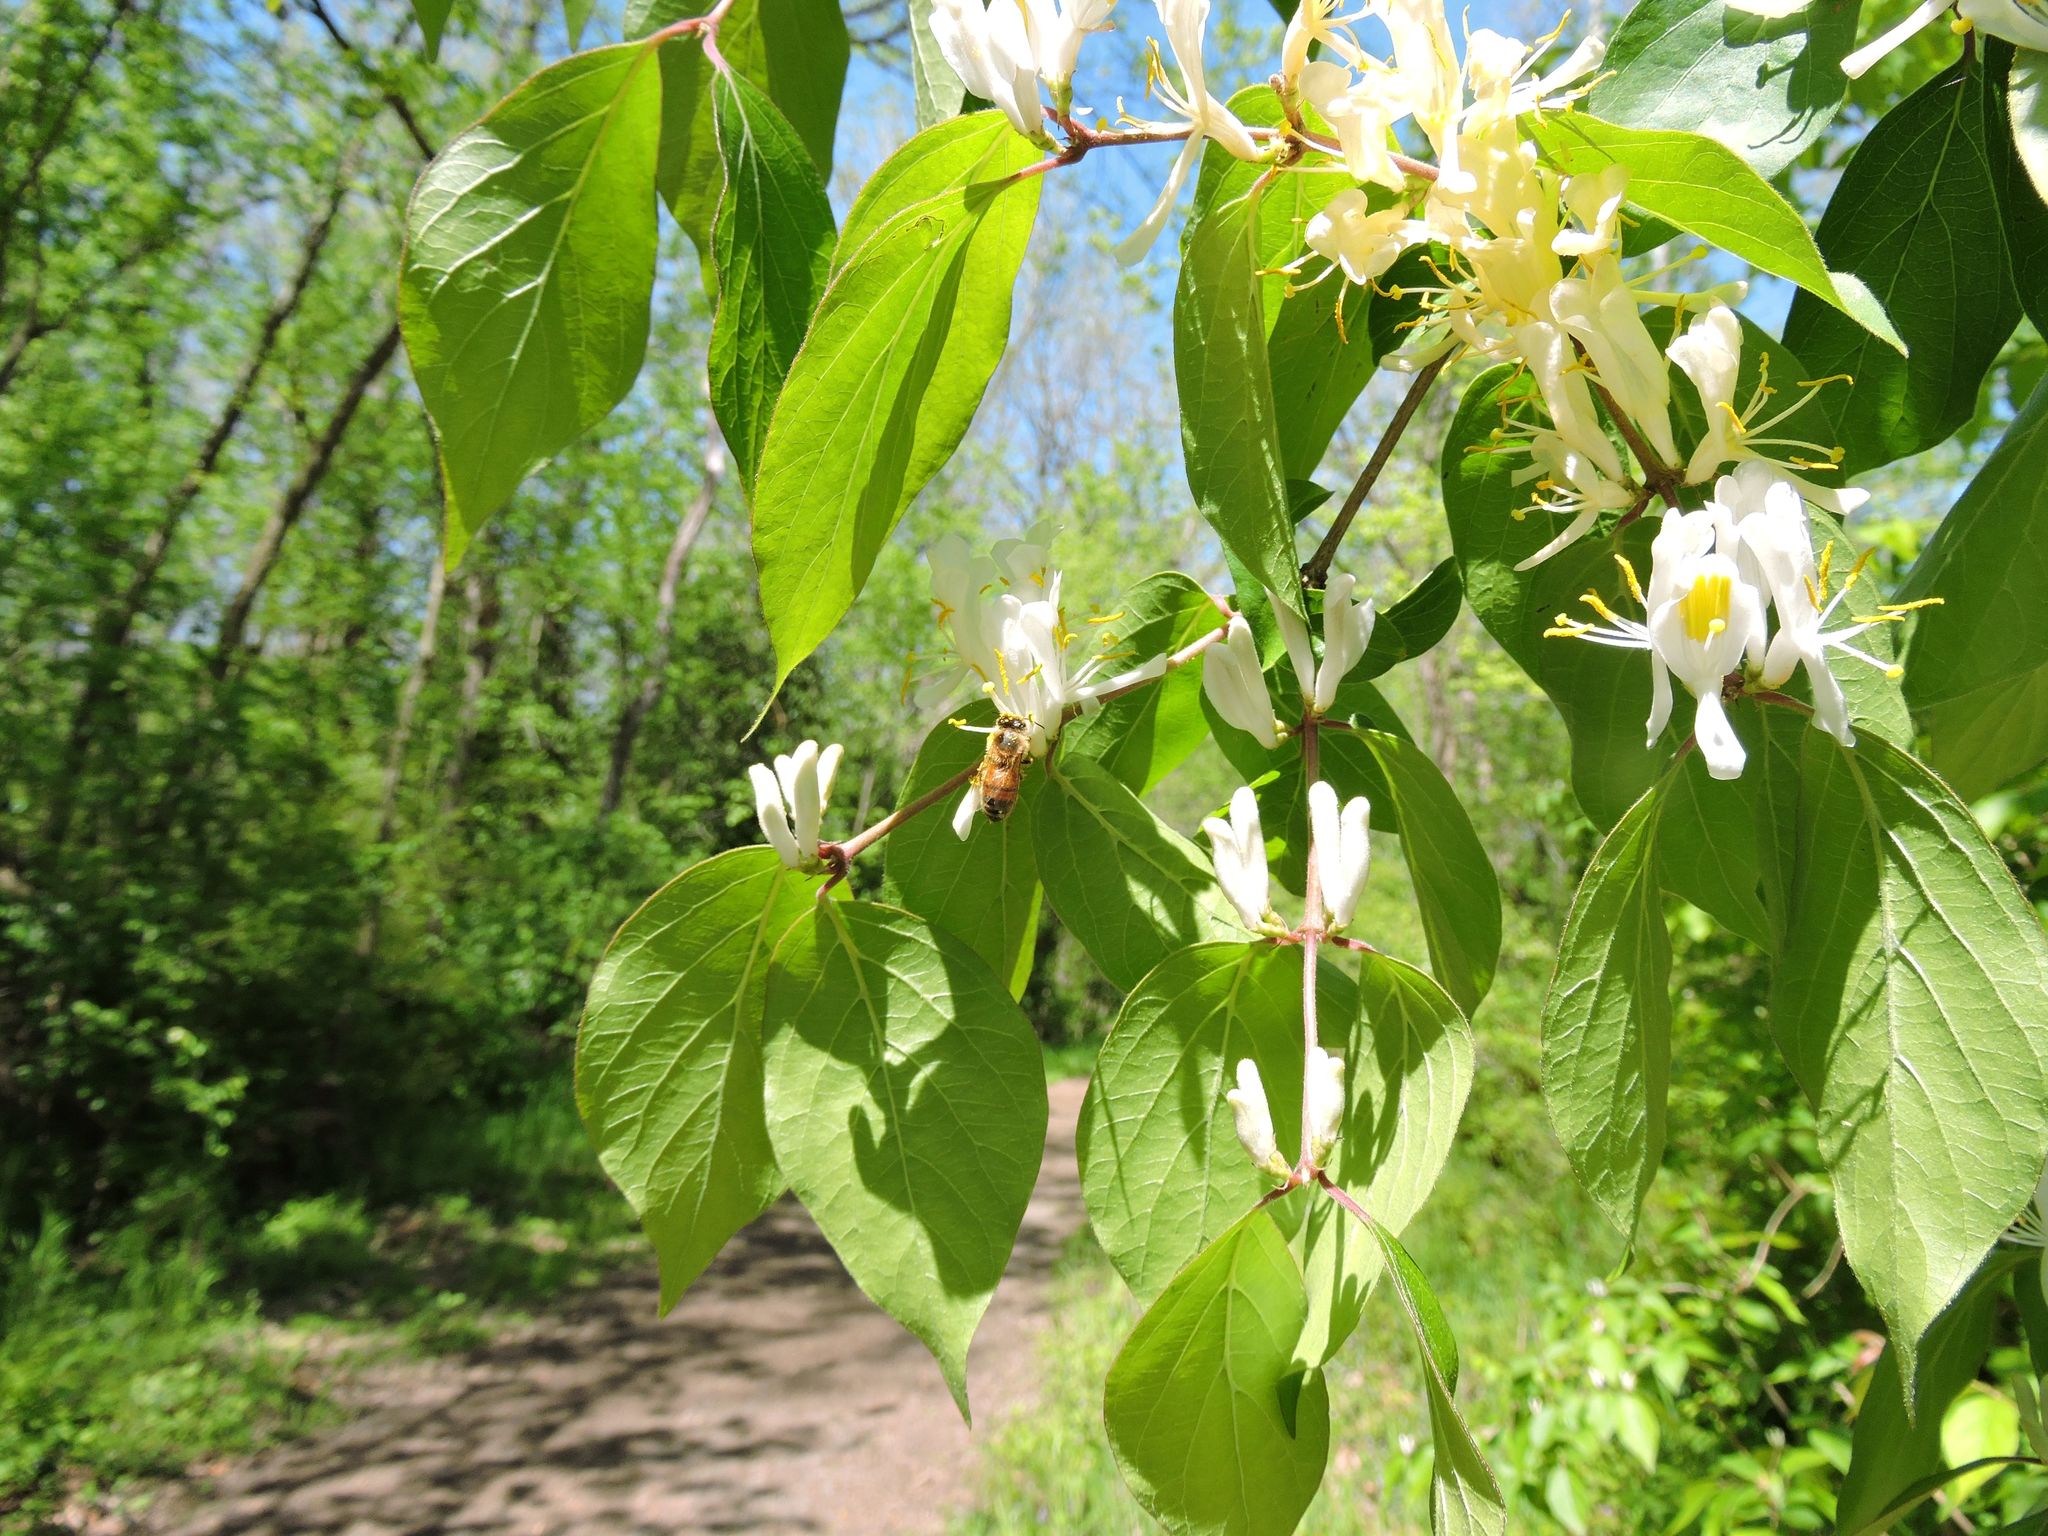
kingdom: Plantae
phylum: Tracheophyta
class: Magnoliopsida
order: Dipsacales
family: Caprifoliaceae
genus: Lonicera
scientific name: Lonicera maackii
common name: Amur honeysuckle
